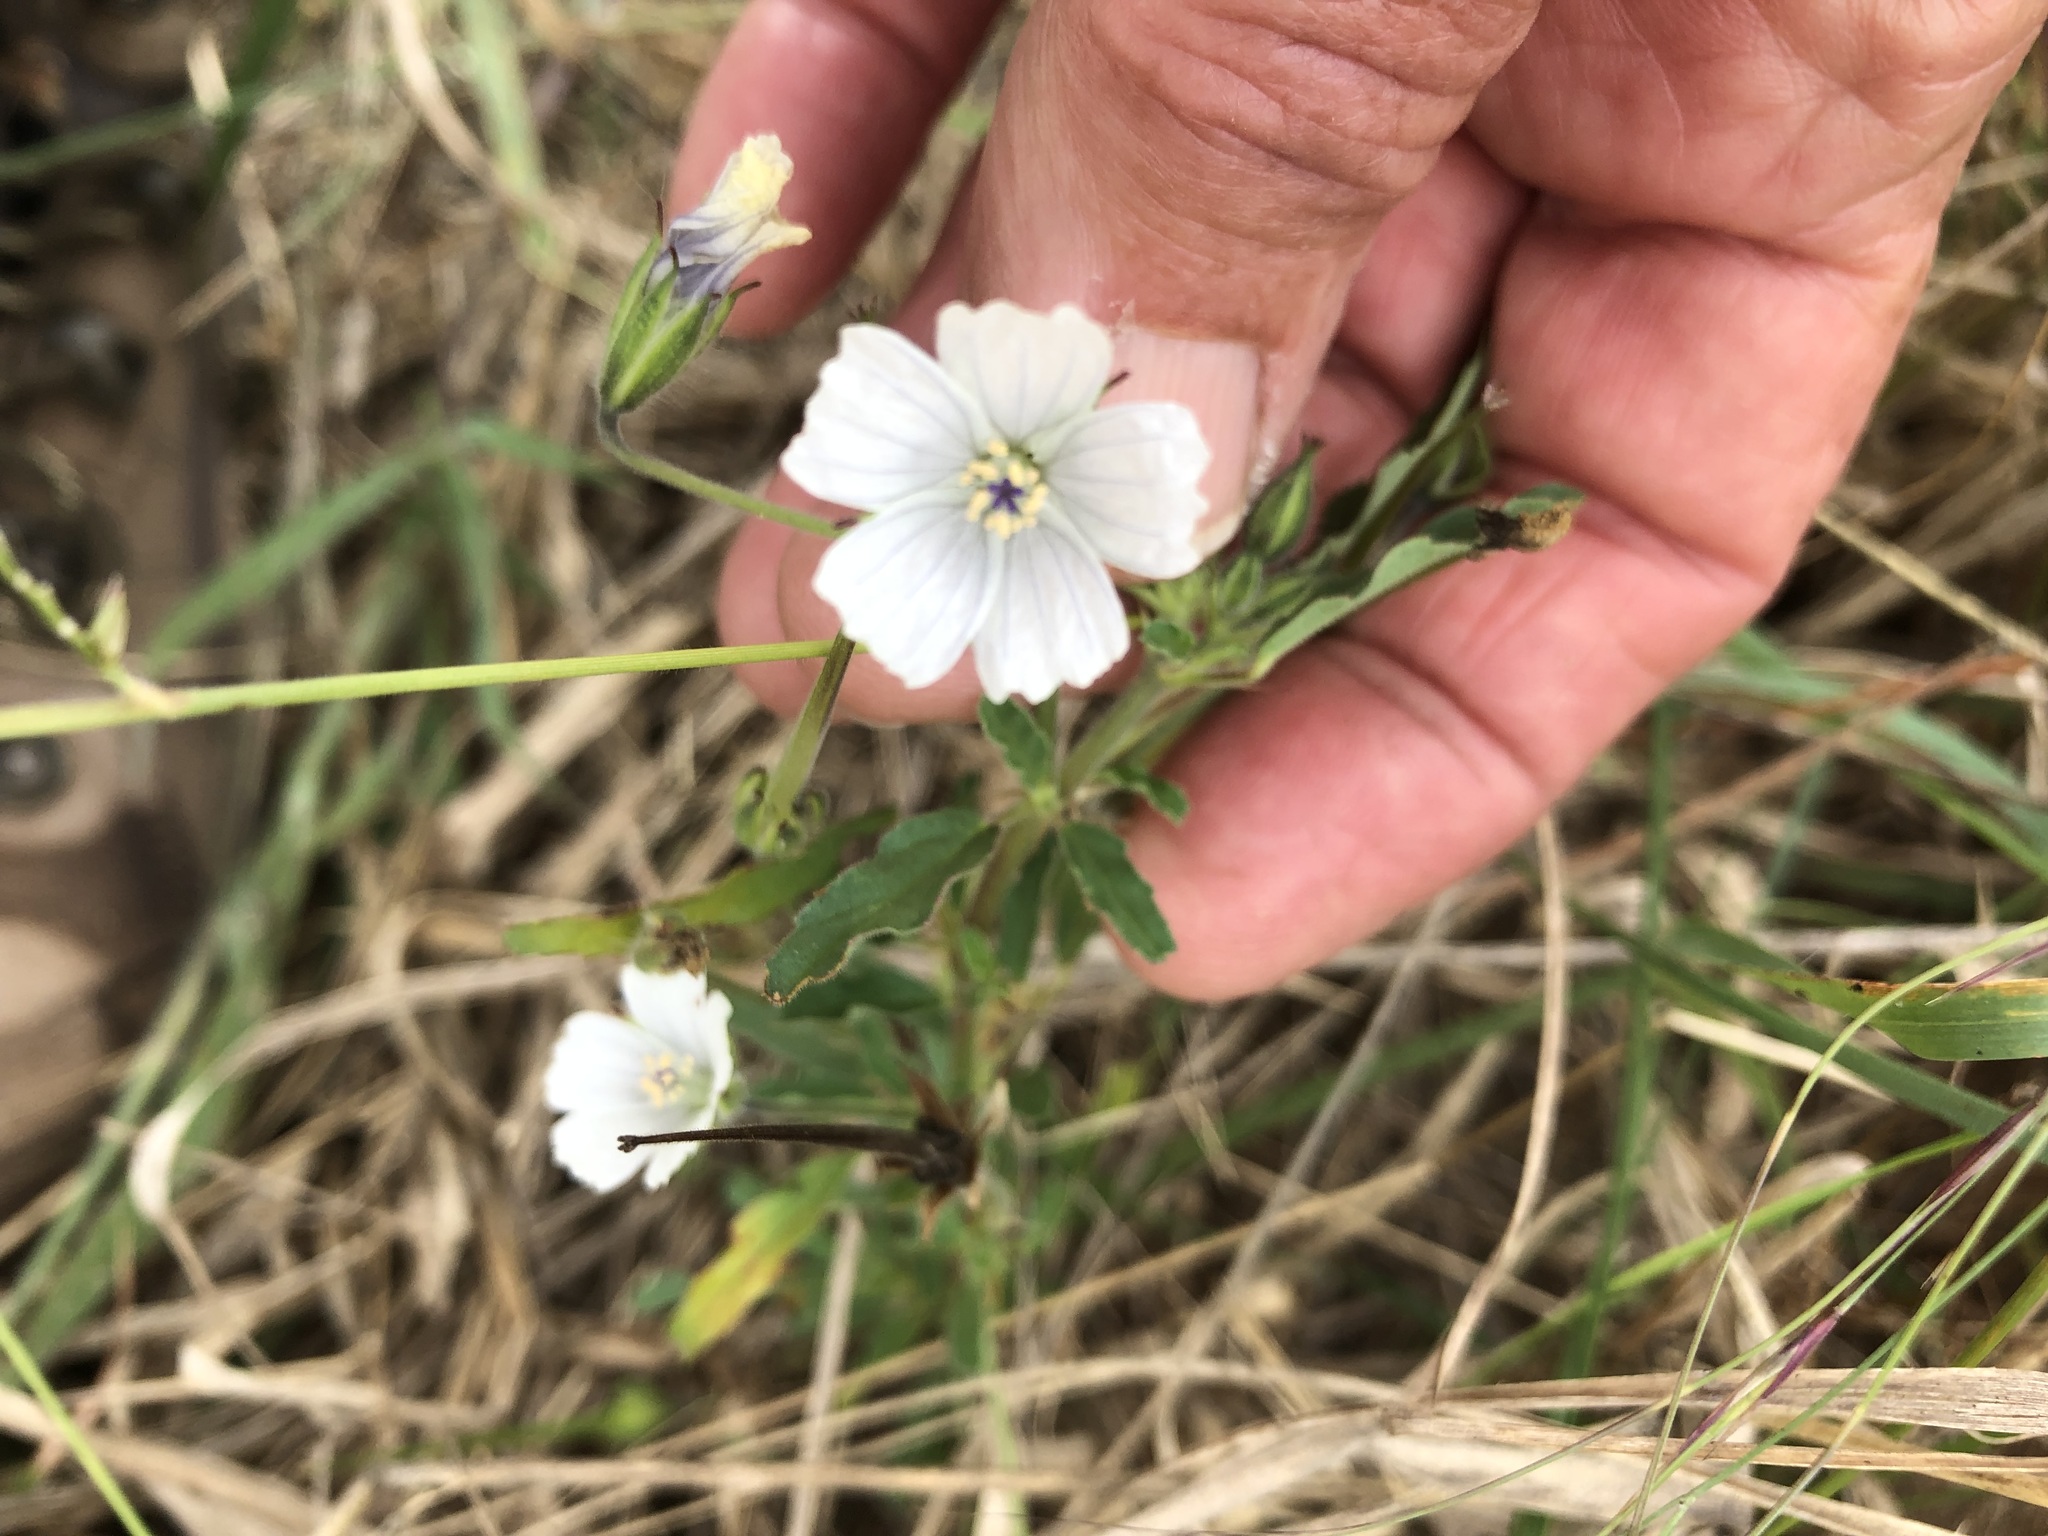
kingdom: Plantae
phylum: Tracheophyta
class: Magnoliopsida
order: Geraniales
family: Geraniaceae
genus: Monsonia
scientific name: Monsonia glauca
